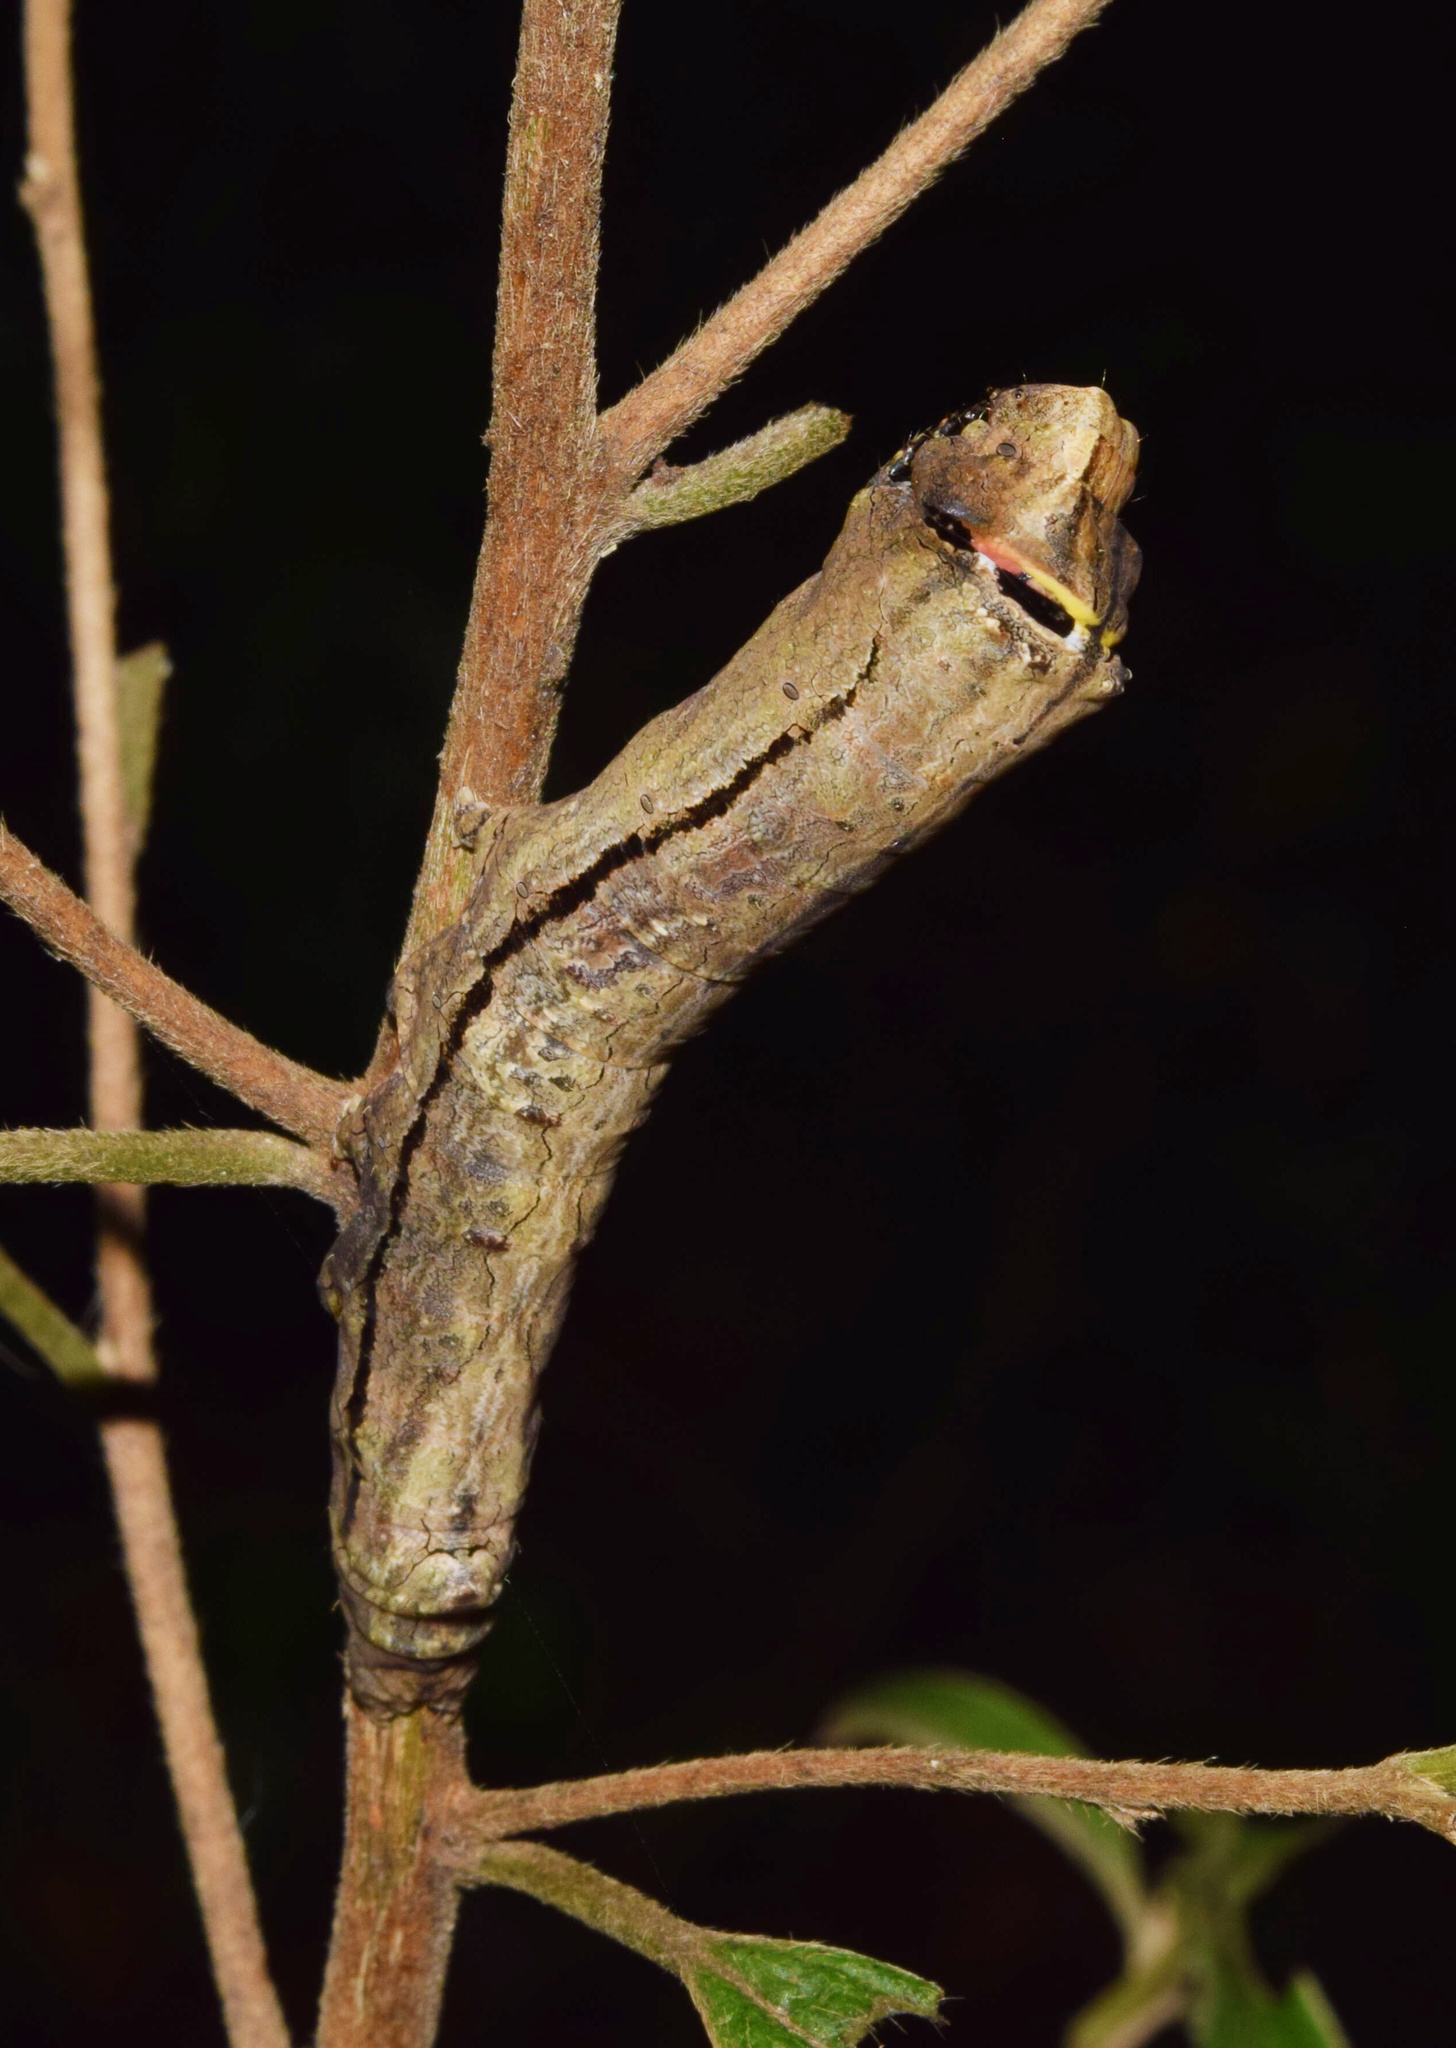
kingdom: Animalia
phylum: Arthropoda
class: Insecta
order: Lepidoptera
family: Erebidae
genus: Antiophlebia
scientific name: Antiophlebia bracteata
